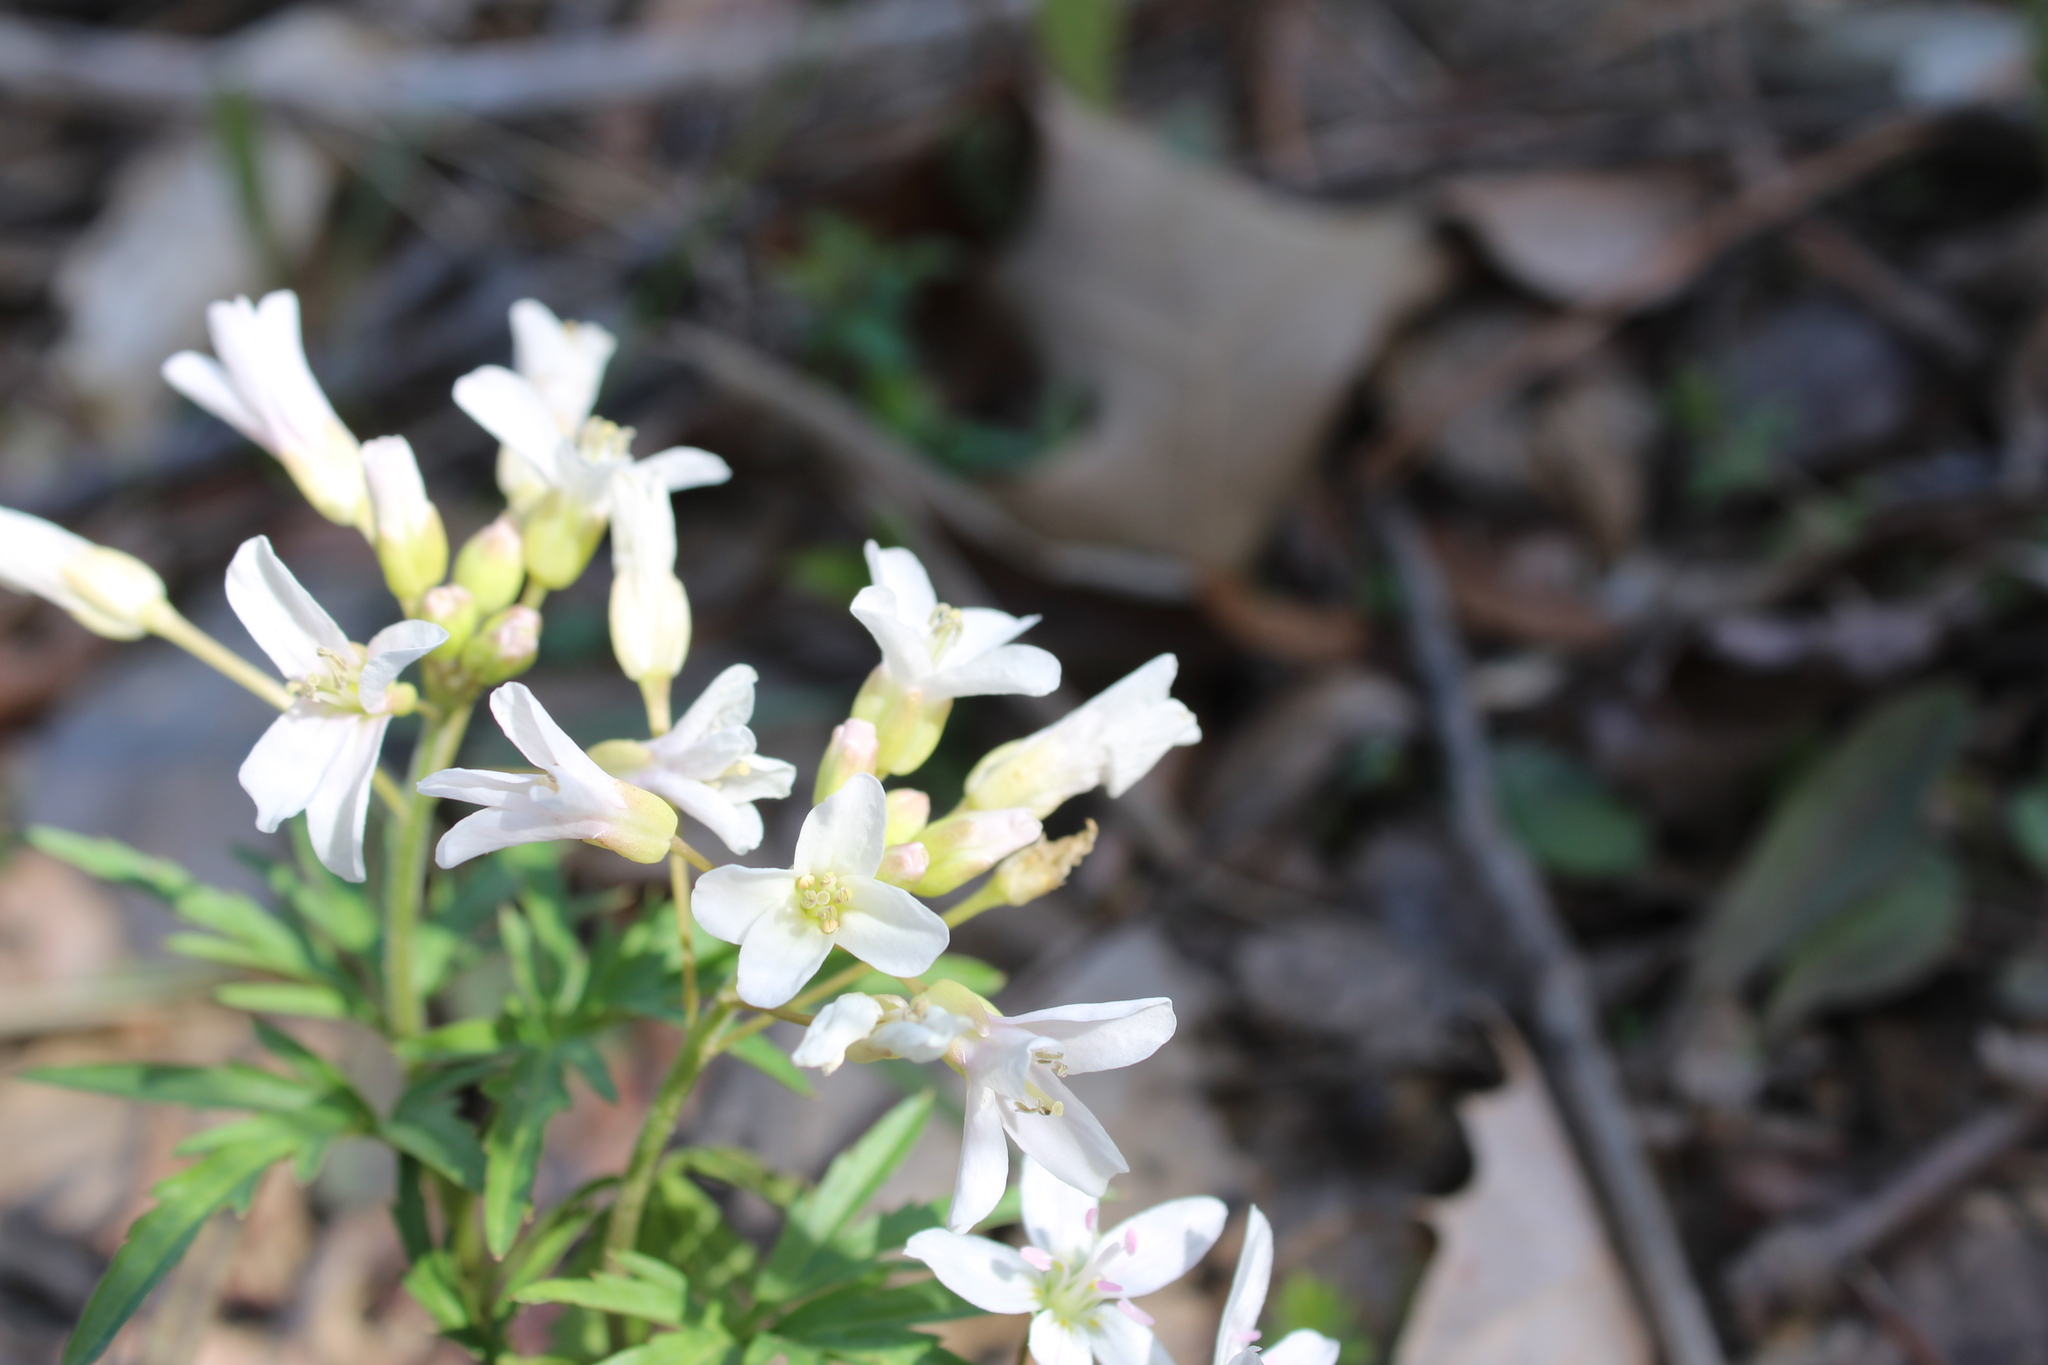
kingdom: Plantae
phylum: Tracheophyta
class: Magnoliopsida
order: Brassicales
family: Brassicaceae
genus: Cardamine
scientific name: Cardamine concatenata
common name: Cut-leaf toothcup
